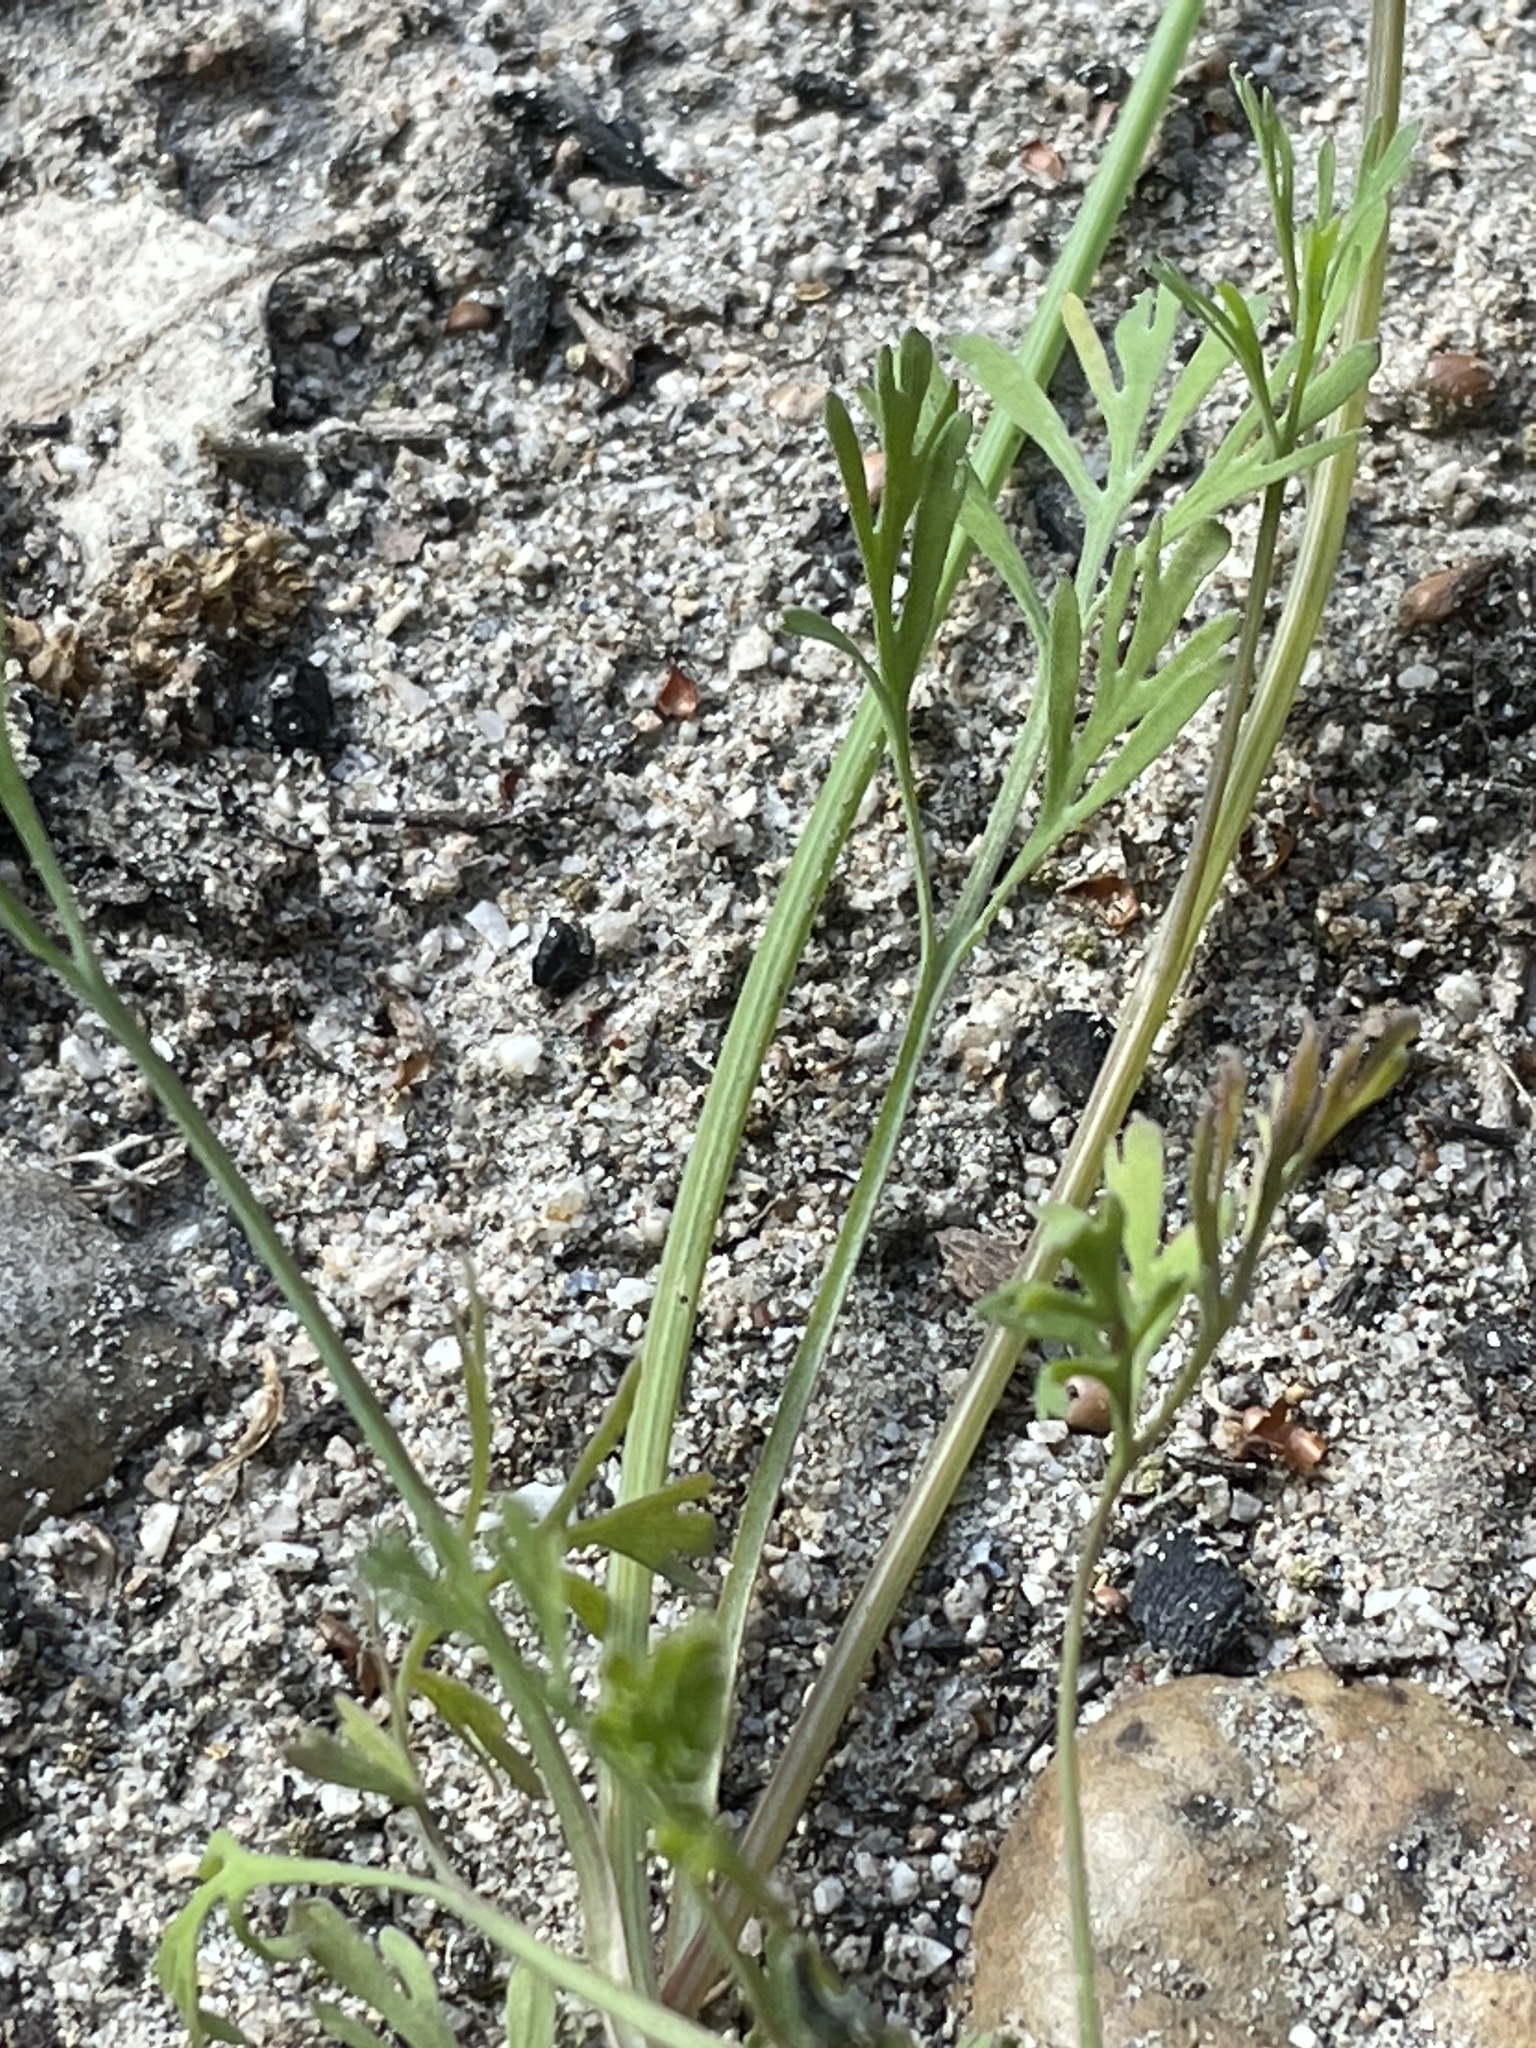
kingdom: Plantae
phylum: Tracheophyta
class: Magnoliopsida
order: Ranunculales
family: Papaveraceae
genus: Eschscholzia
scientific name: Eschscholzia caespitosa
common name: Tufted california-poppy
